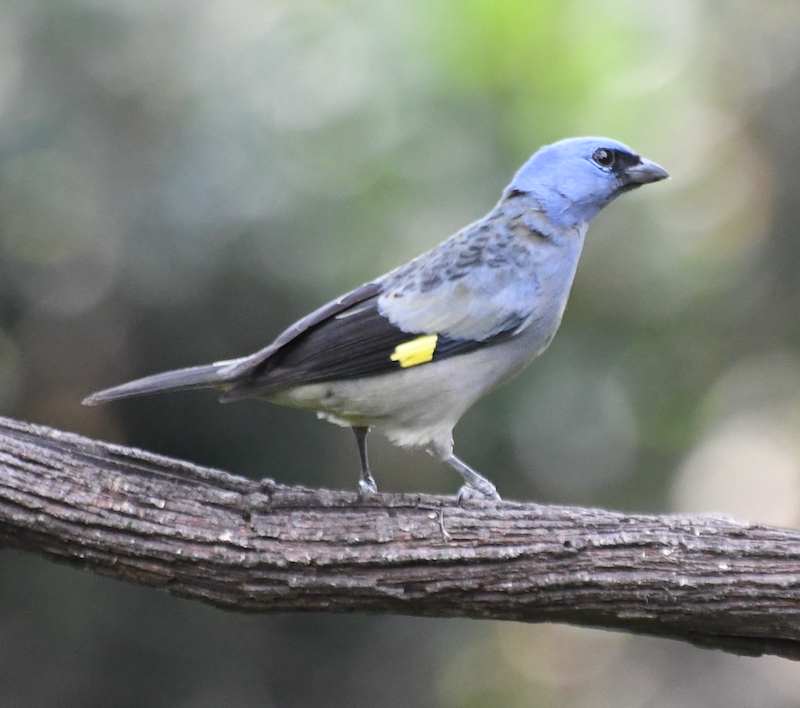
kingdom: Animalia
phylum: Chordata
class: Aves
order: Passeriformes
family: Thraupidae
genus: Thraupis
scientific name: Thraupis abbas
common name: Yellow-winged tanager
